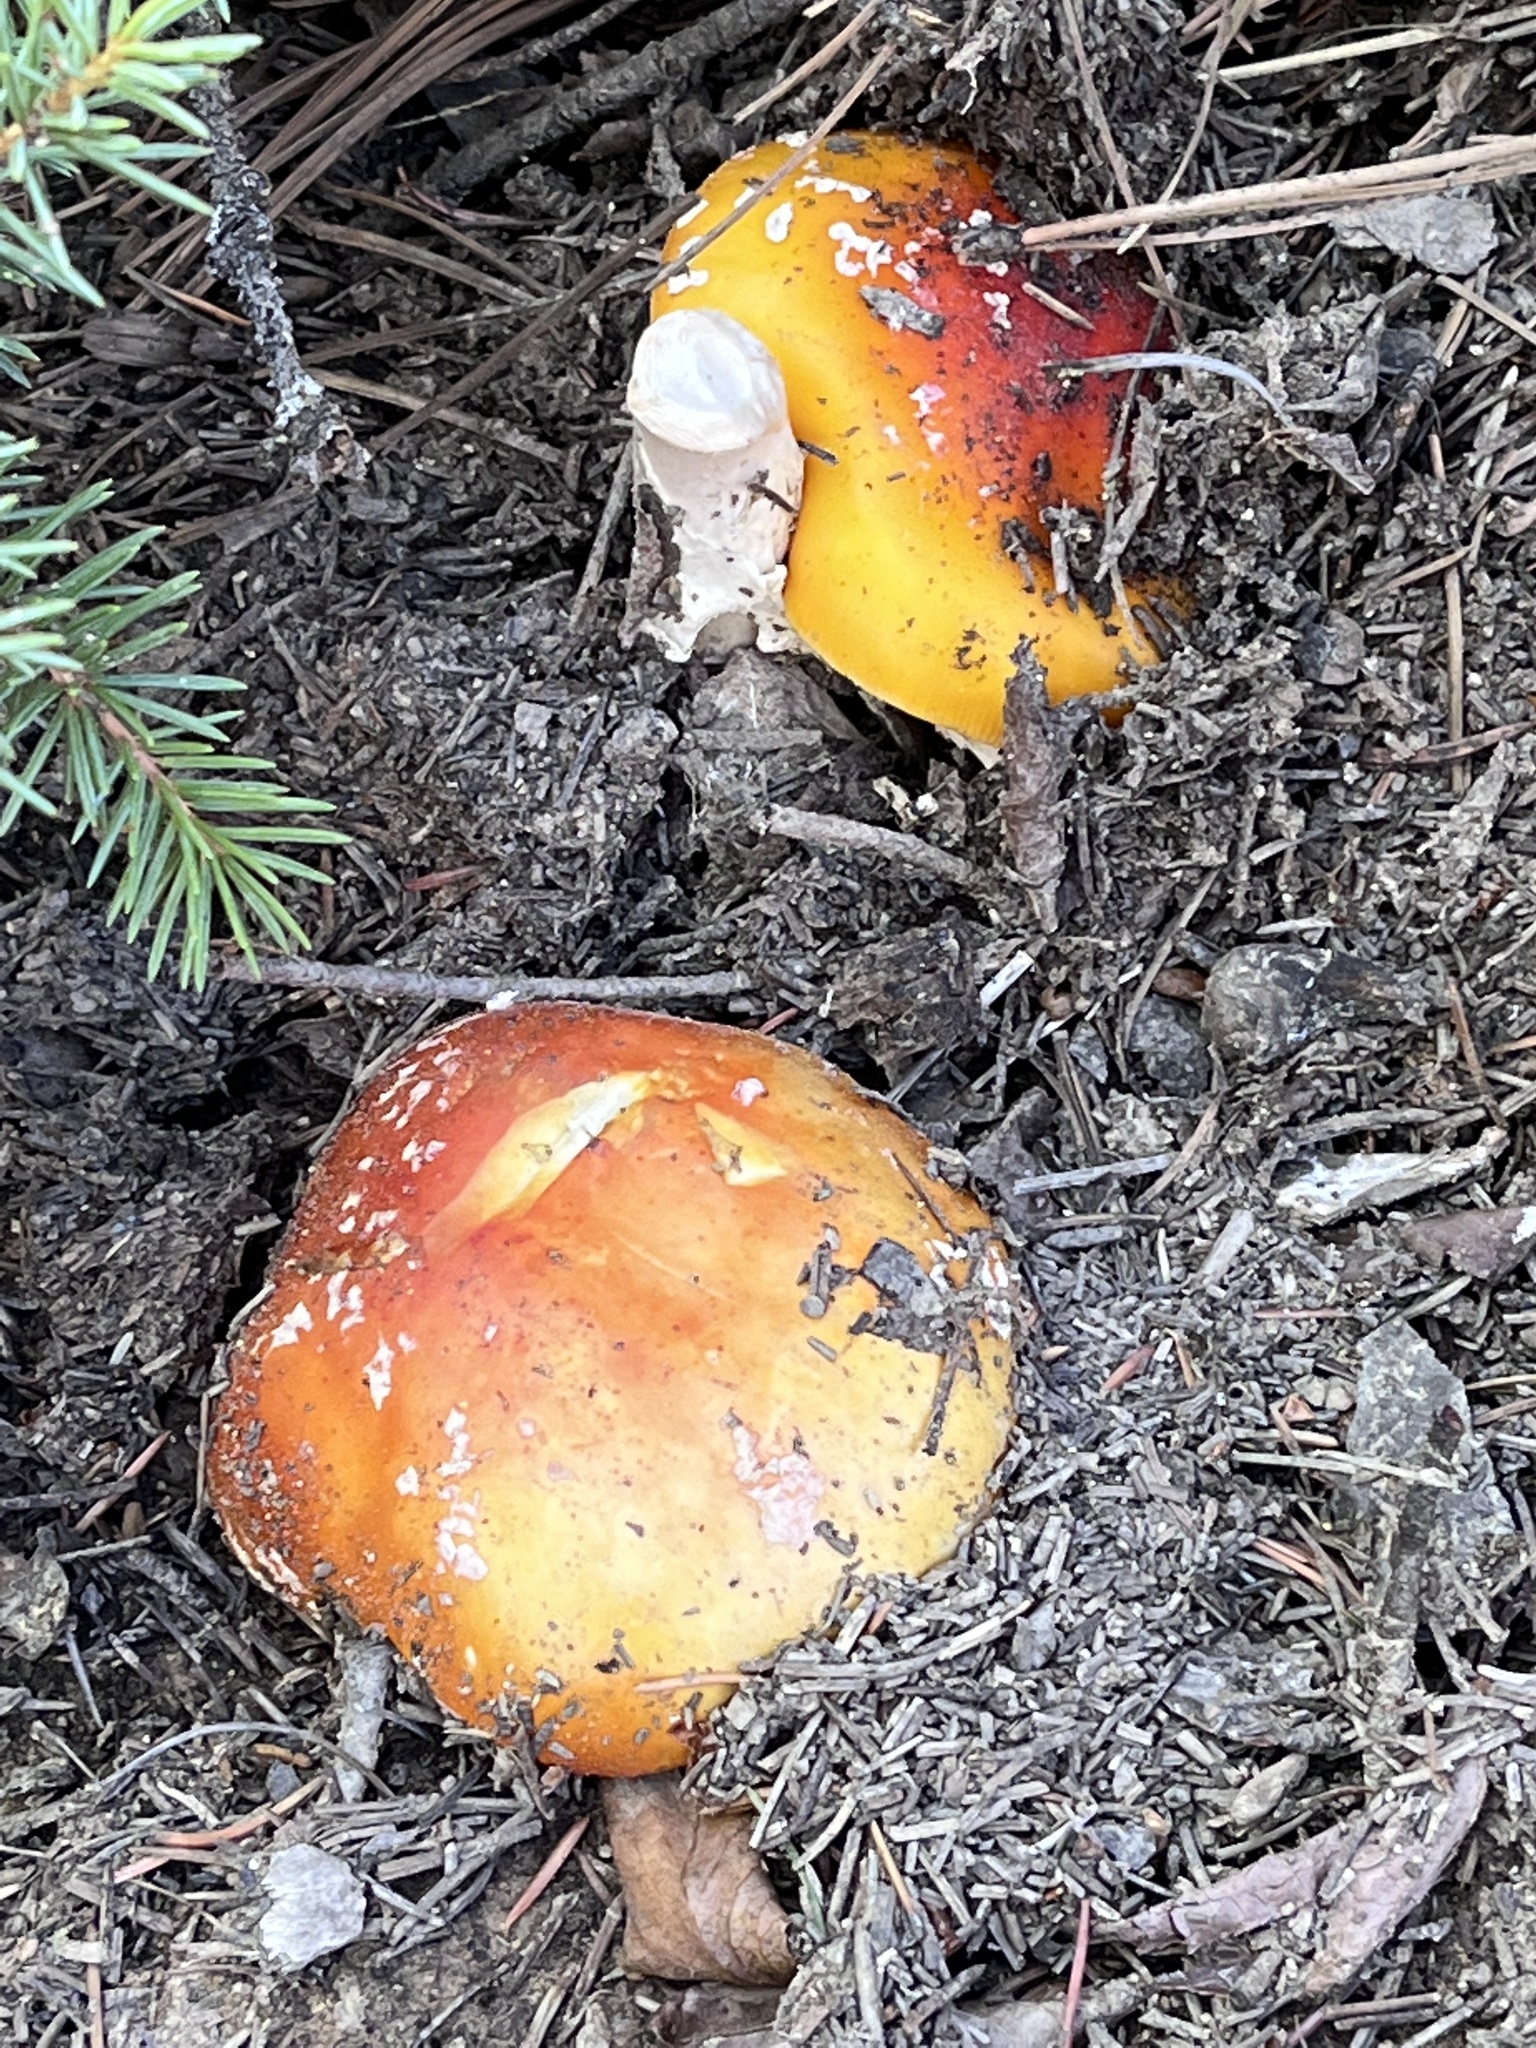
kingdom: Fungi
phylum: Basidiomycota
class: Agaricomycetes
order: Agaricales
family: Amanitaceae
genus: Amanita
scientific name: Amanita muscaria
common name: Fly agaric
